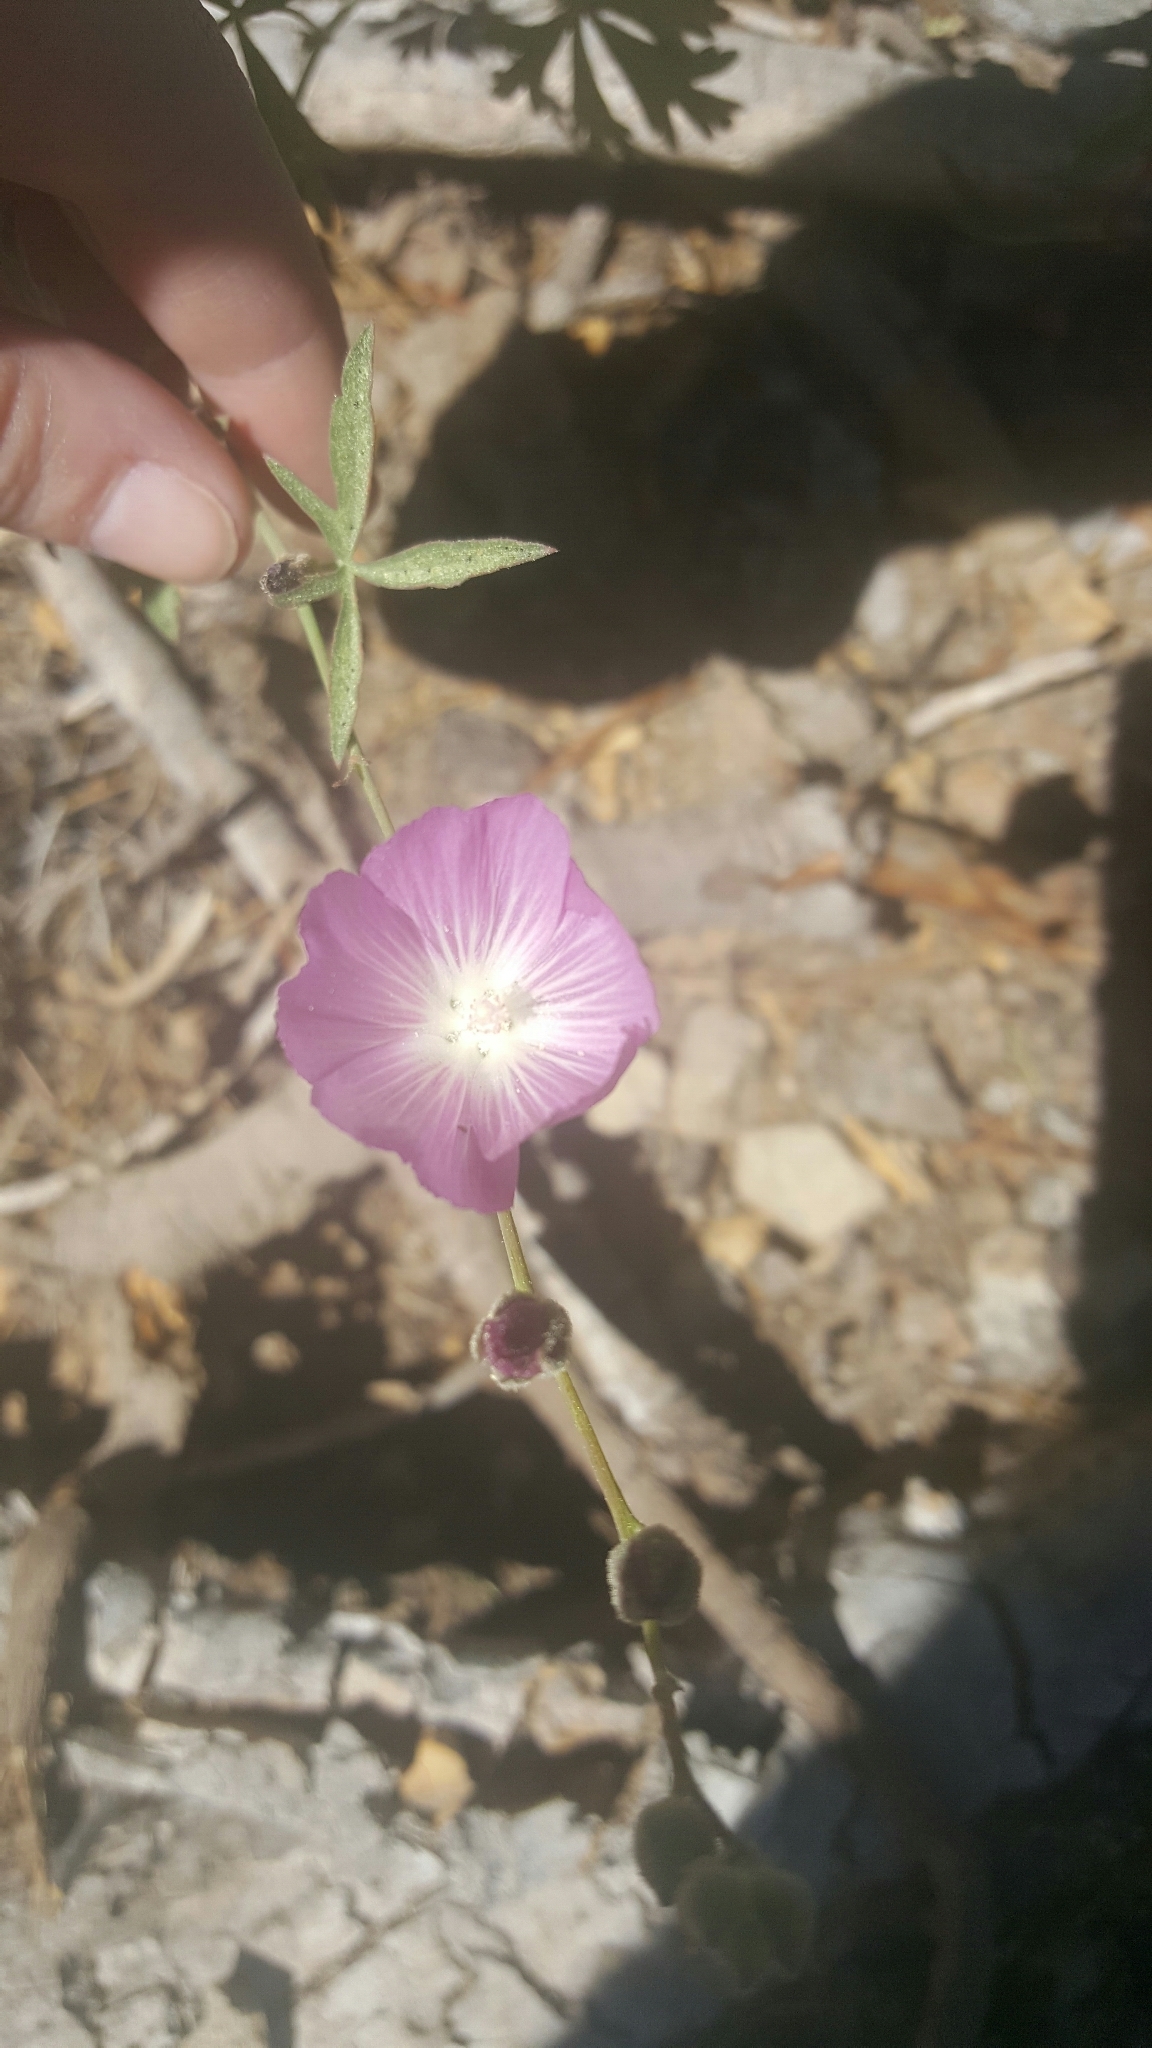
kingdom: Plantae
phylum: Tracheophyta
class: Magnoliopsida
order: Malvales
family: Malvaceae
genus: Sidalcea
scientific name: Sidalcea glaucescens
